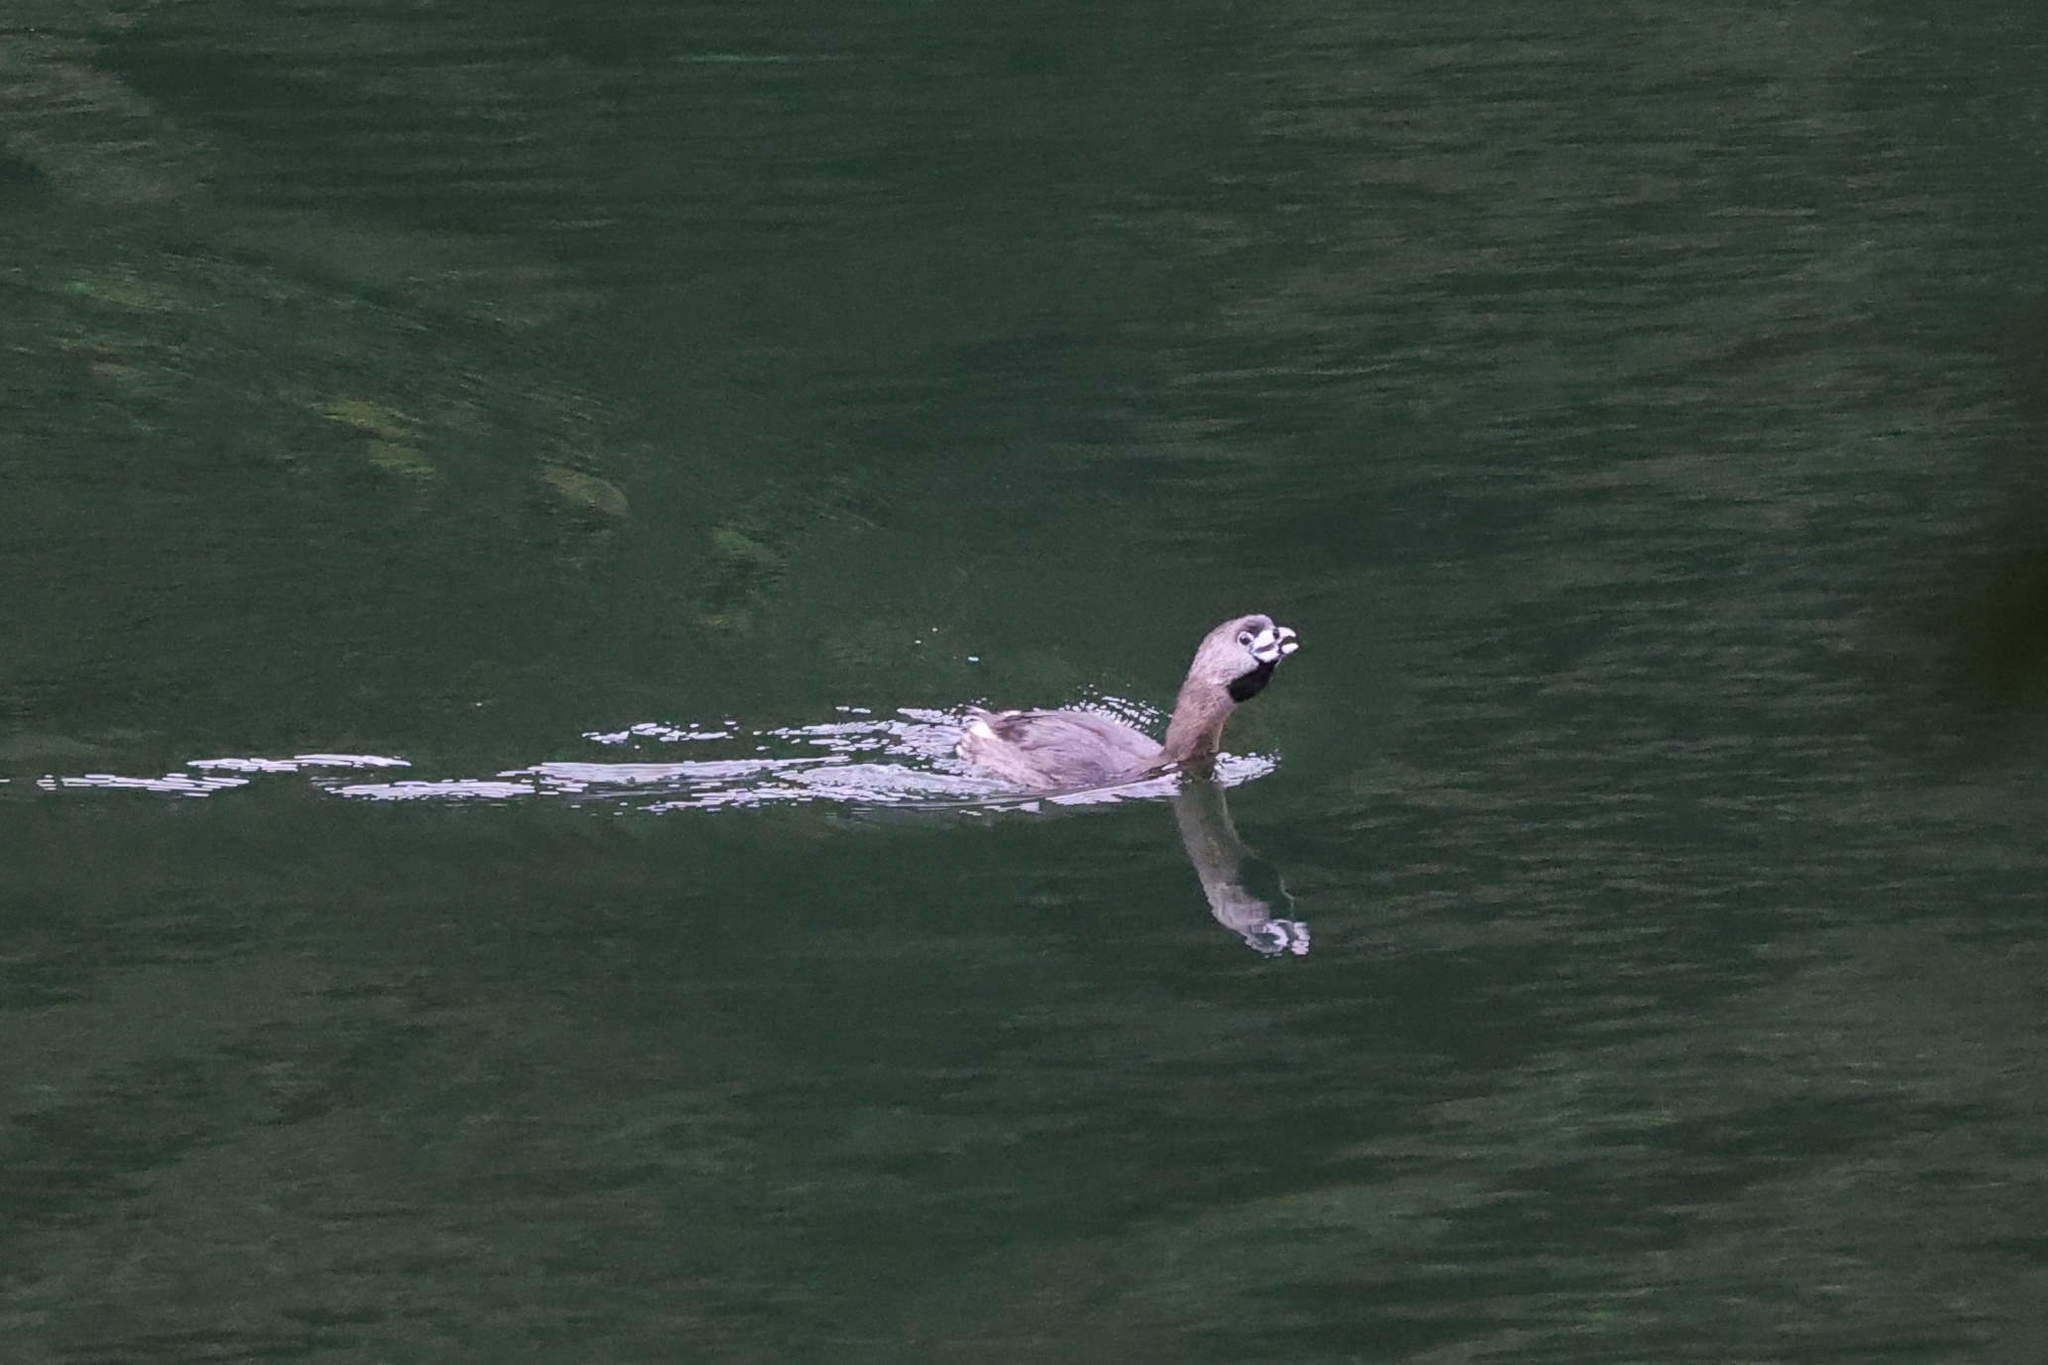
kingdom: Animalia
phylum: Chordata
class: Aves
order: Podicipediformes
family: Podicipedidae
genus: Podilymbus
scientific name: Podilymbus podiceps
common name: Pied-billed grebe
